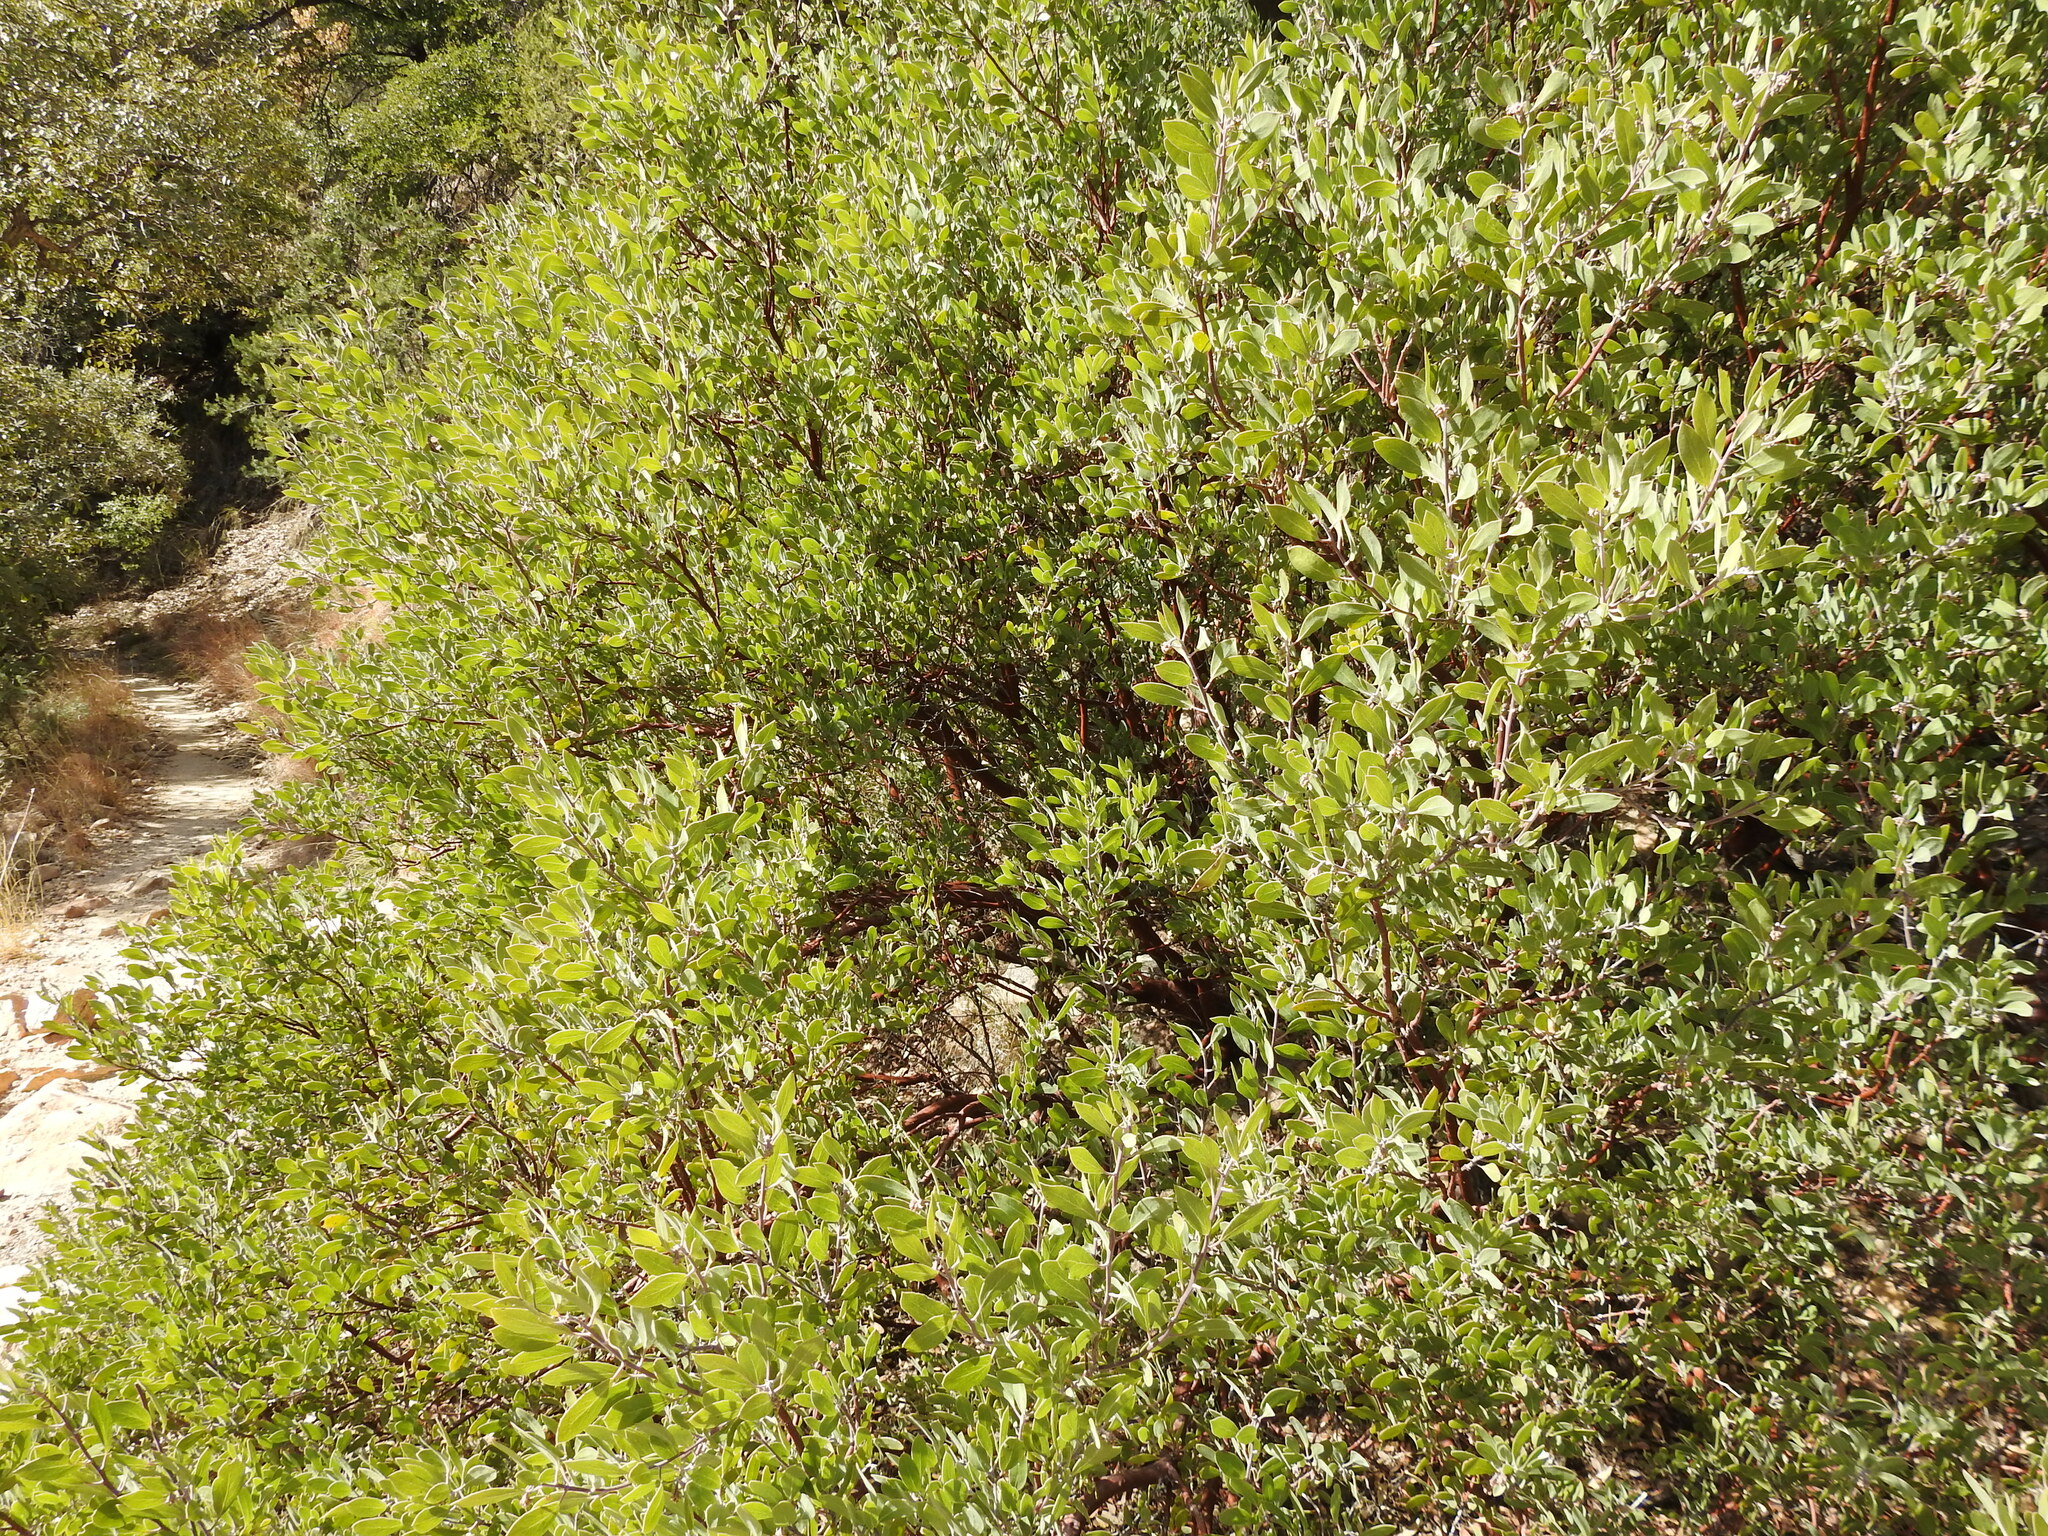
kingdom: Plantae
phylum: Tracheophyta
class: Magnoliopsida
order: Ericales
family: Ericaceae
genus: Arctostaphylos
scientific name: Arctostaphylos pungens
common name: Mexican manzanita
